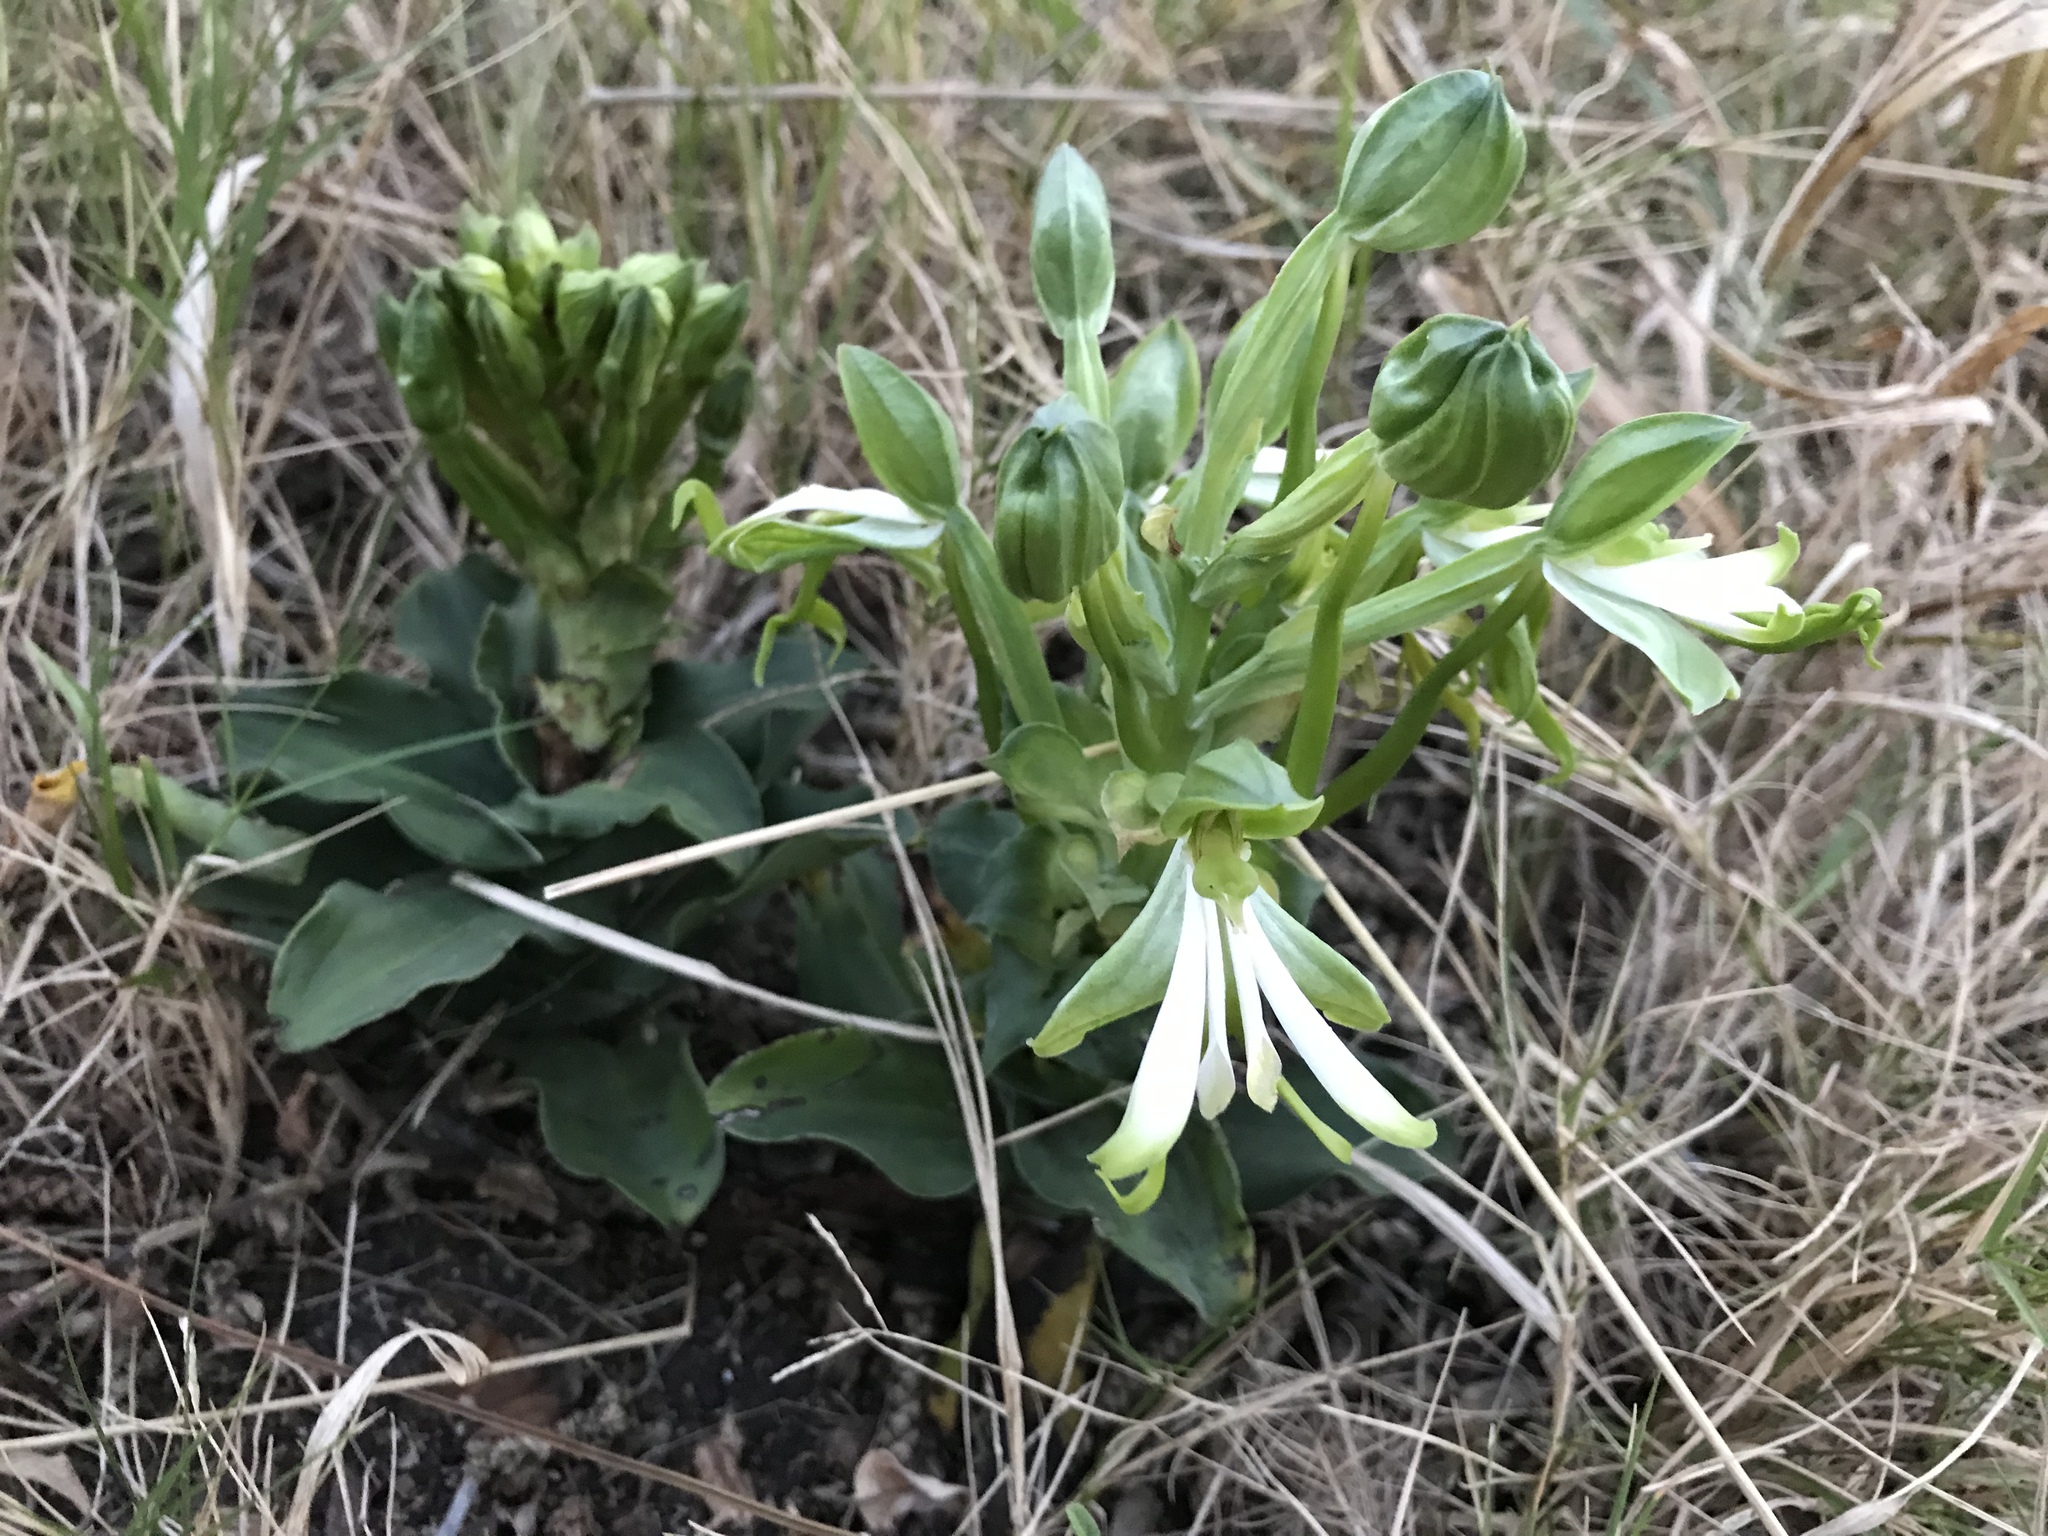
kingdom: Plantae
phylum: Tracheophyta
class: Liliopsida
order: Asparagales
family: Orchidaceae
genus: Bonatea
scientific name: Bonatea speciosa
